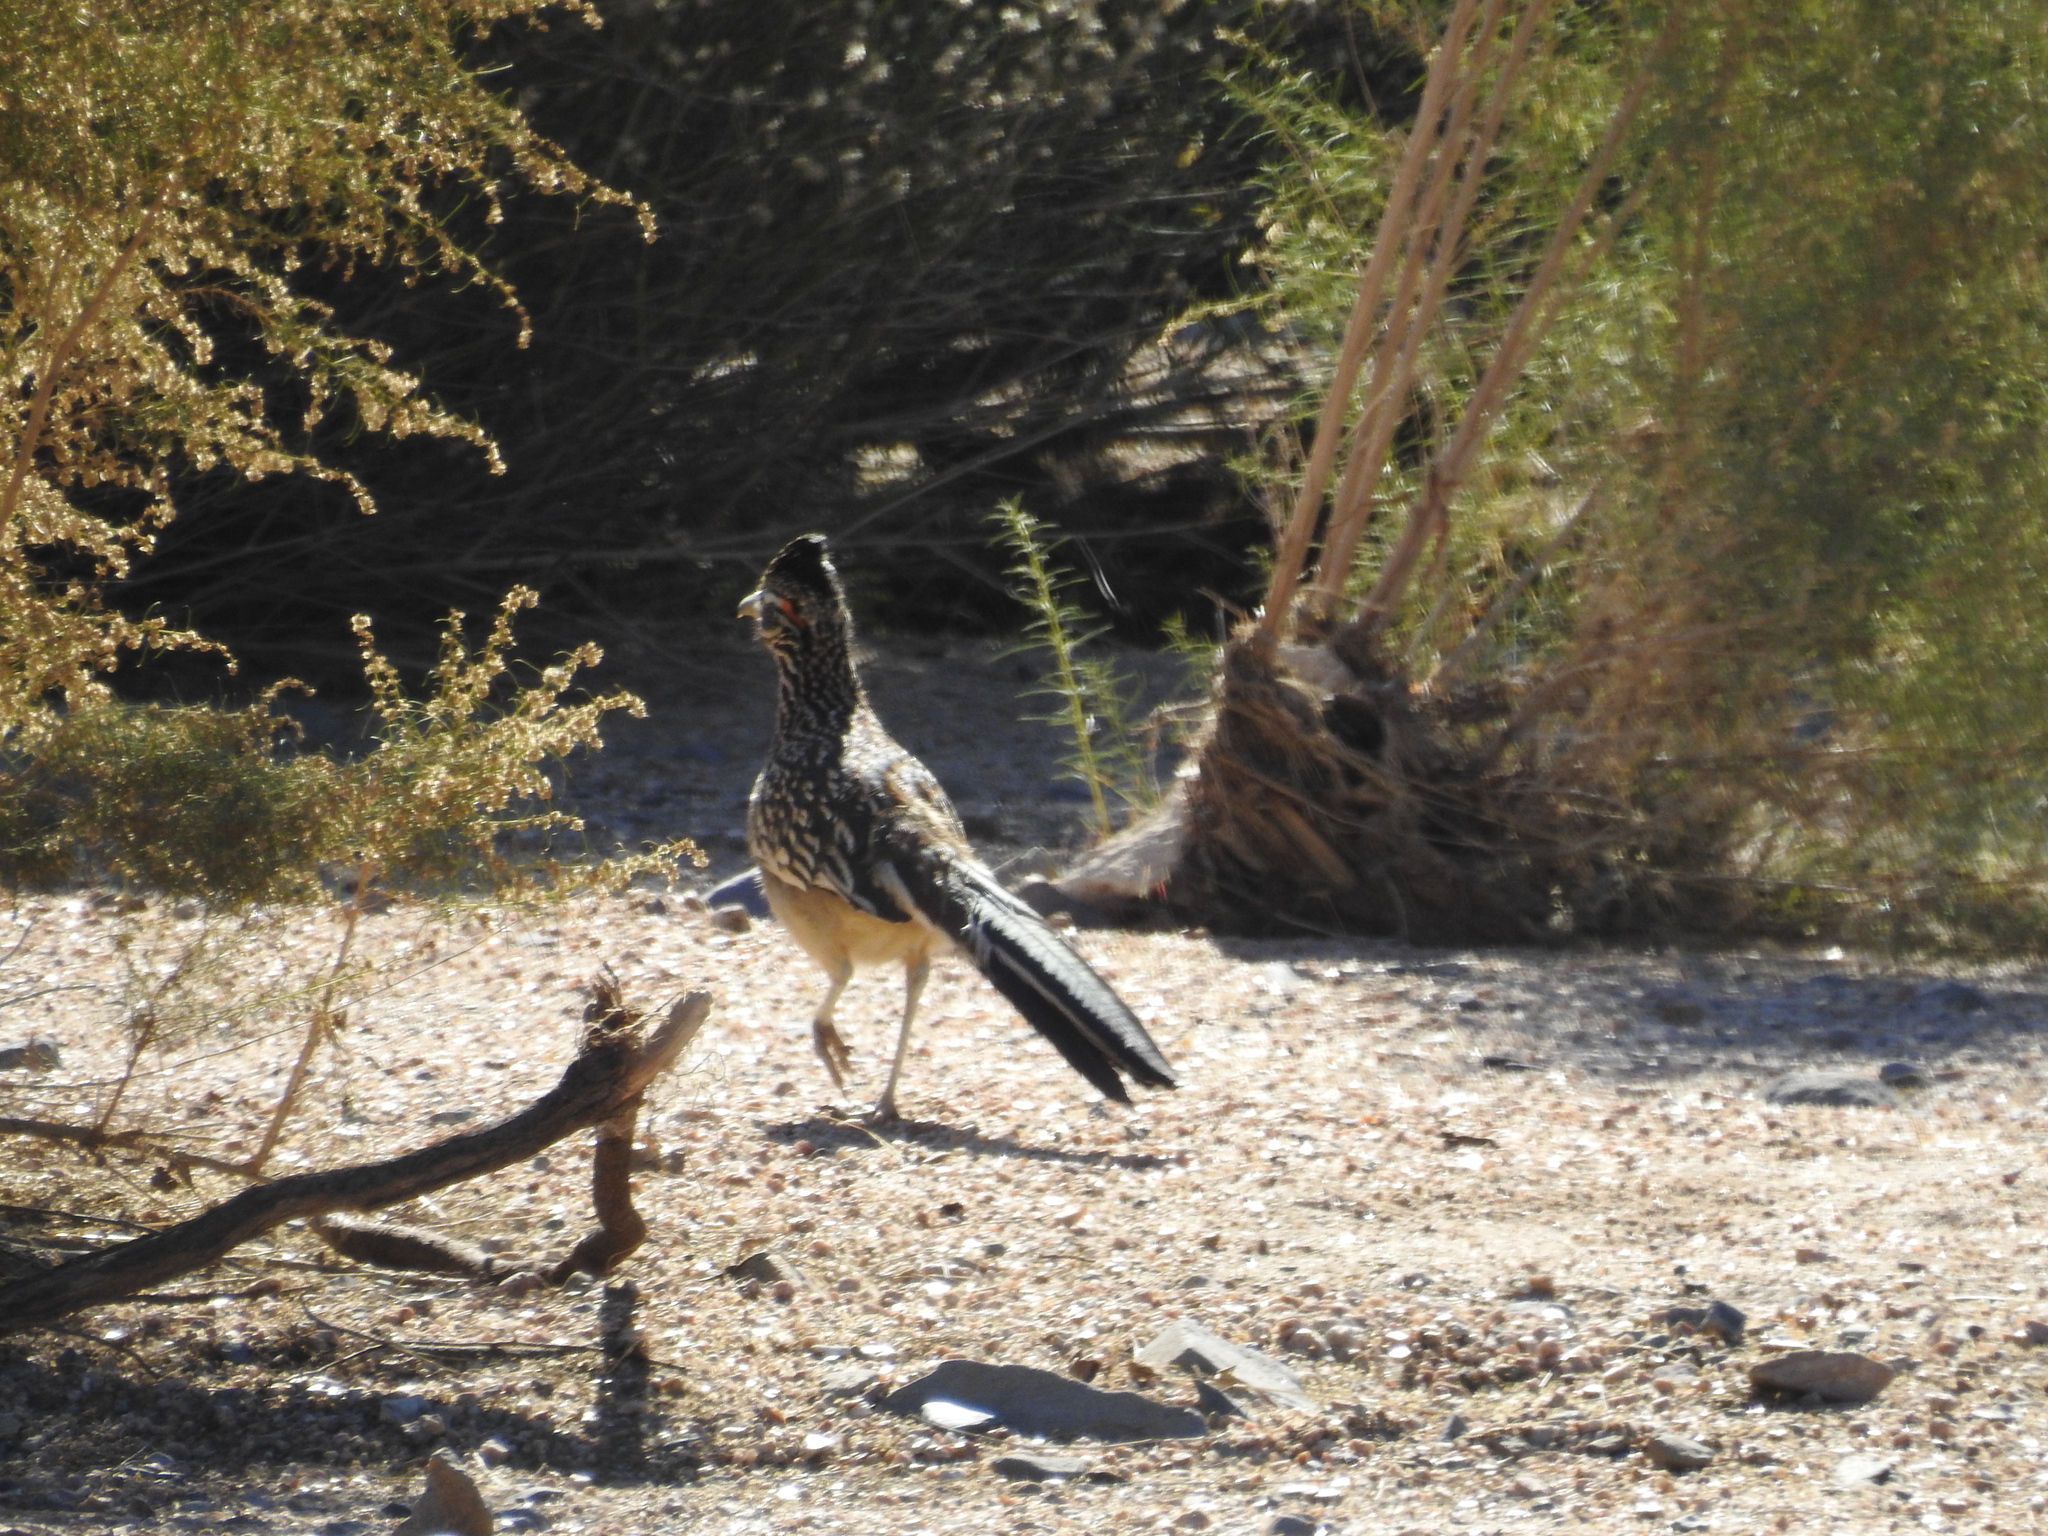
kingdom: Animalia
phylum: Chordata
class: Aves
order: Cuculiformes
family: Cuculidae
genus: Geococcyx
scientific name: Geococcyx californianus
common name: Greater roadrunner
